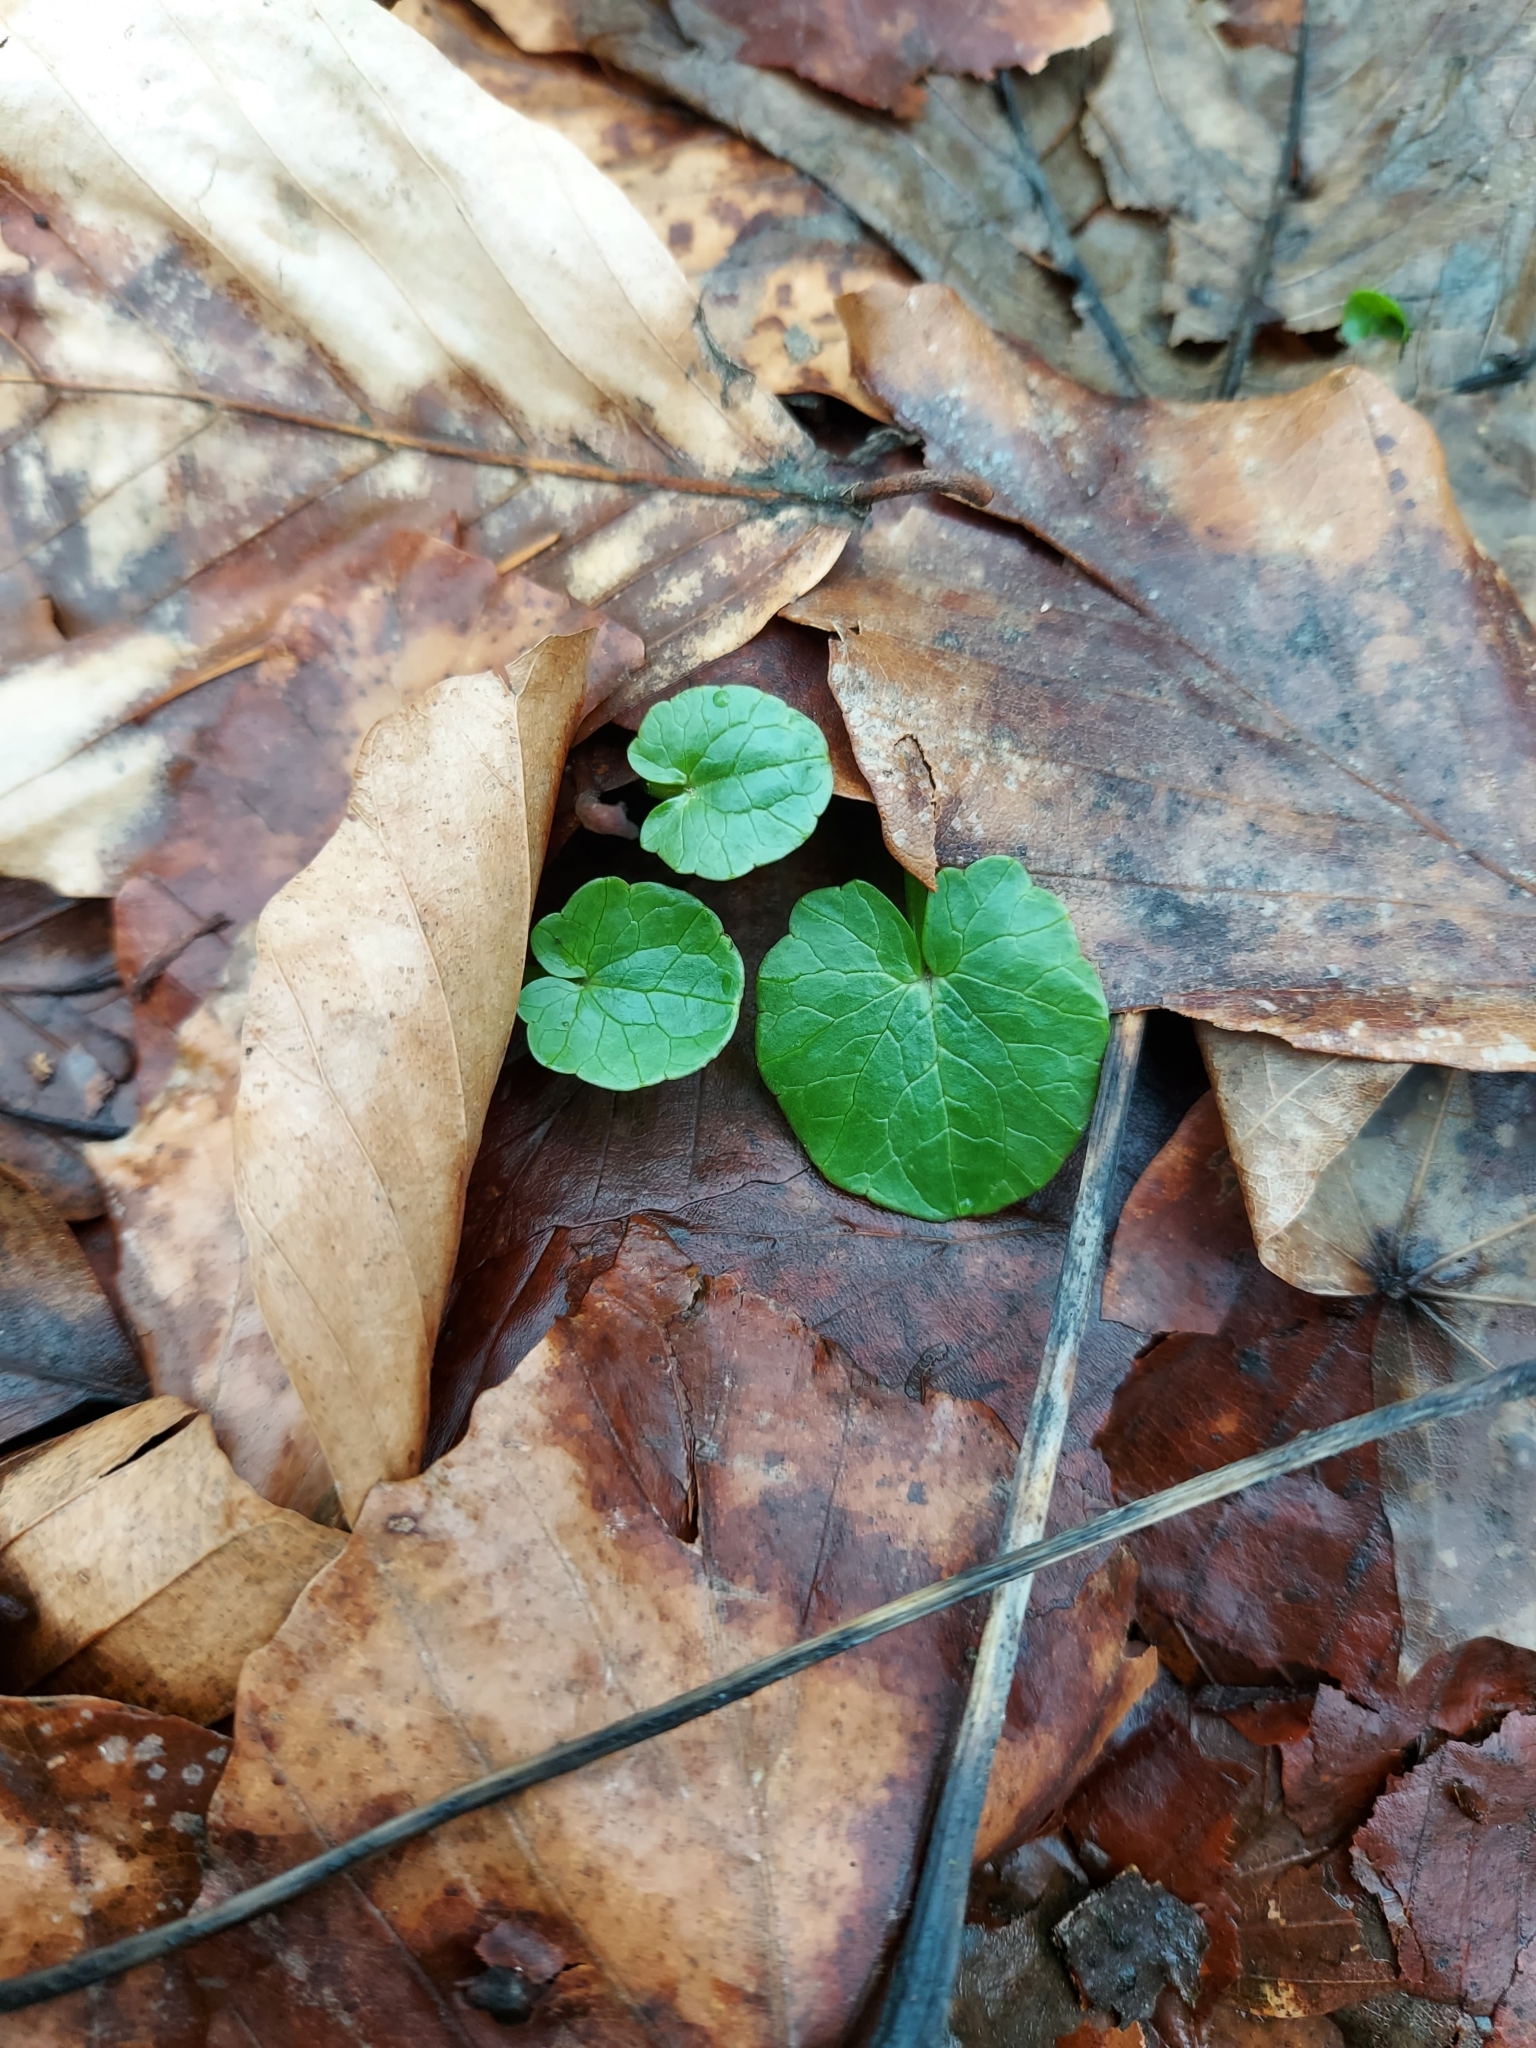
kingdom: Plantae
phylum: Tracheophyta
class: Magnoliopsida
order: Ranunculales
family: Ranunculaceae
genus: Ficaria
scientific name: Ficaria verna
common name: Lesser celandine
